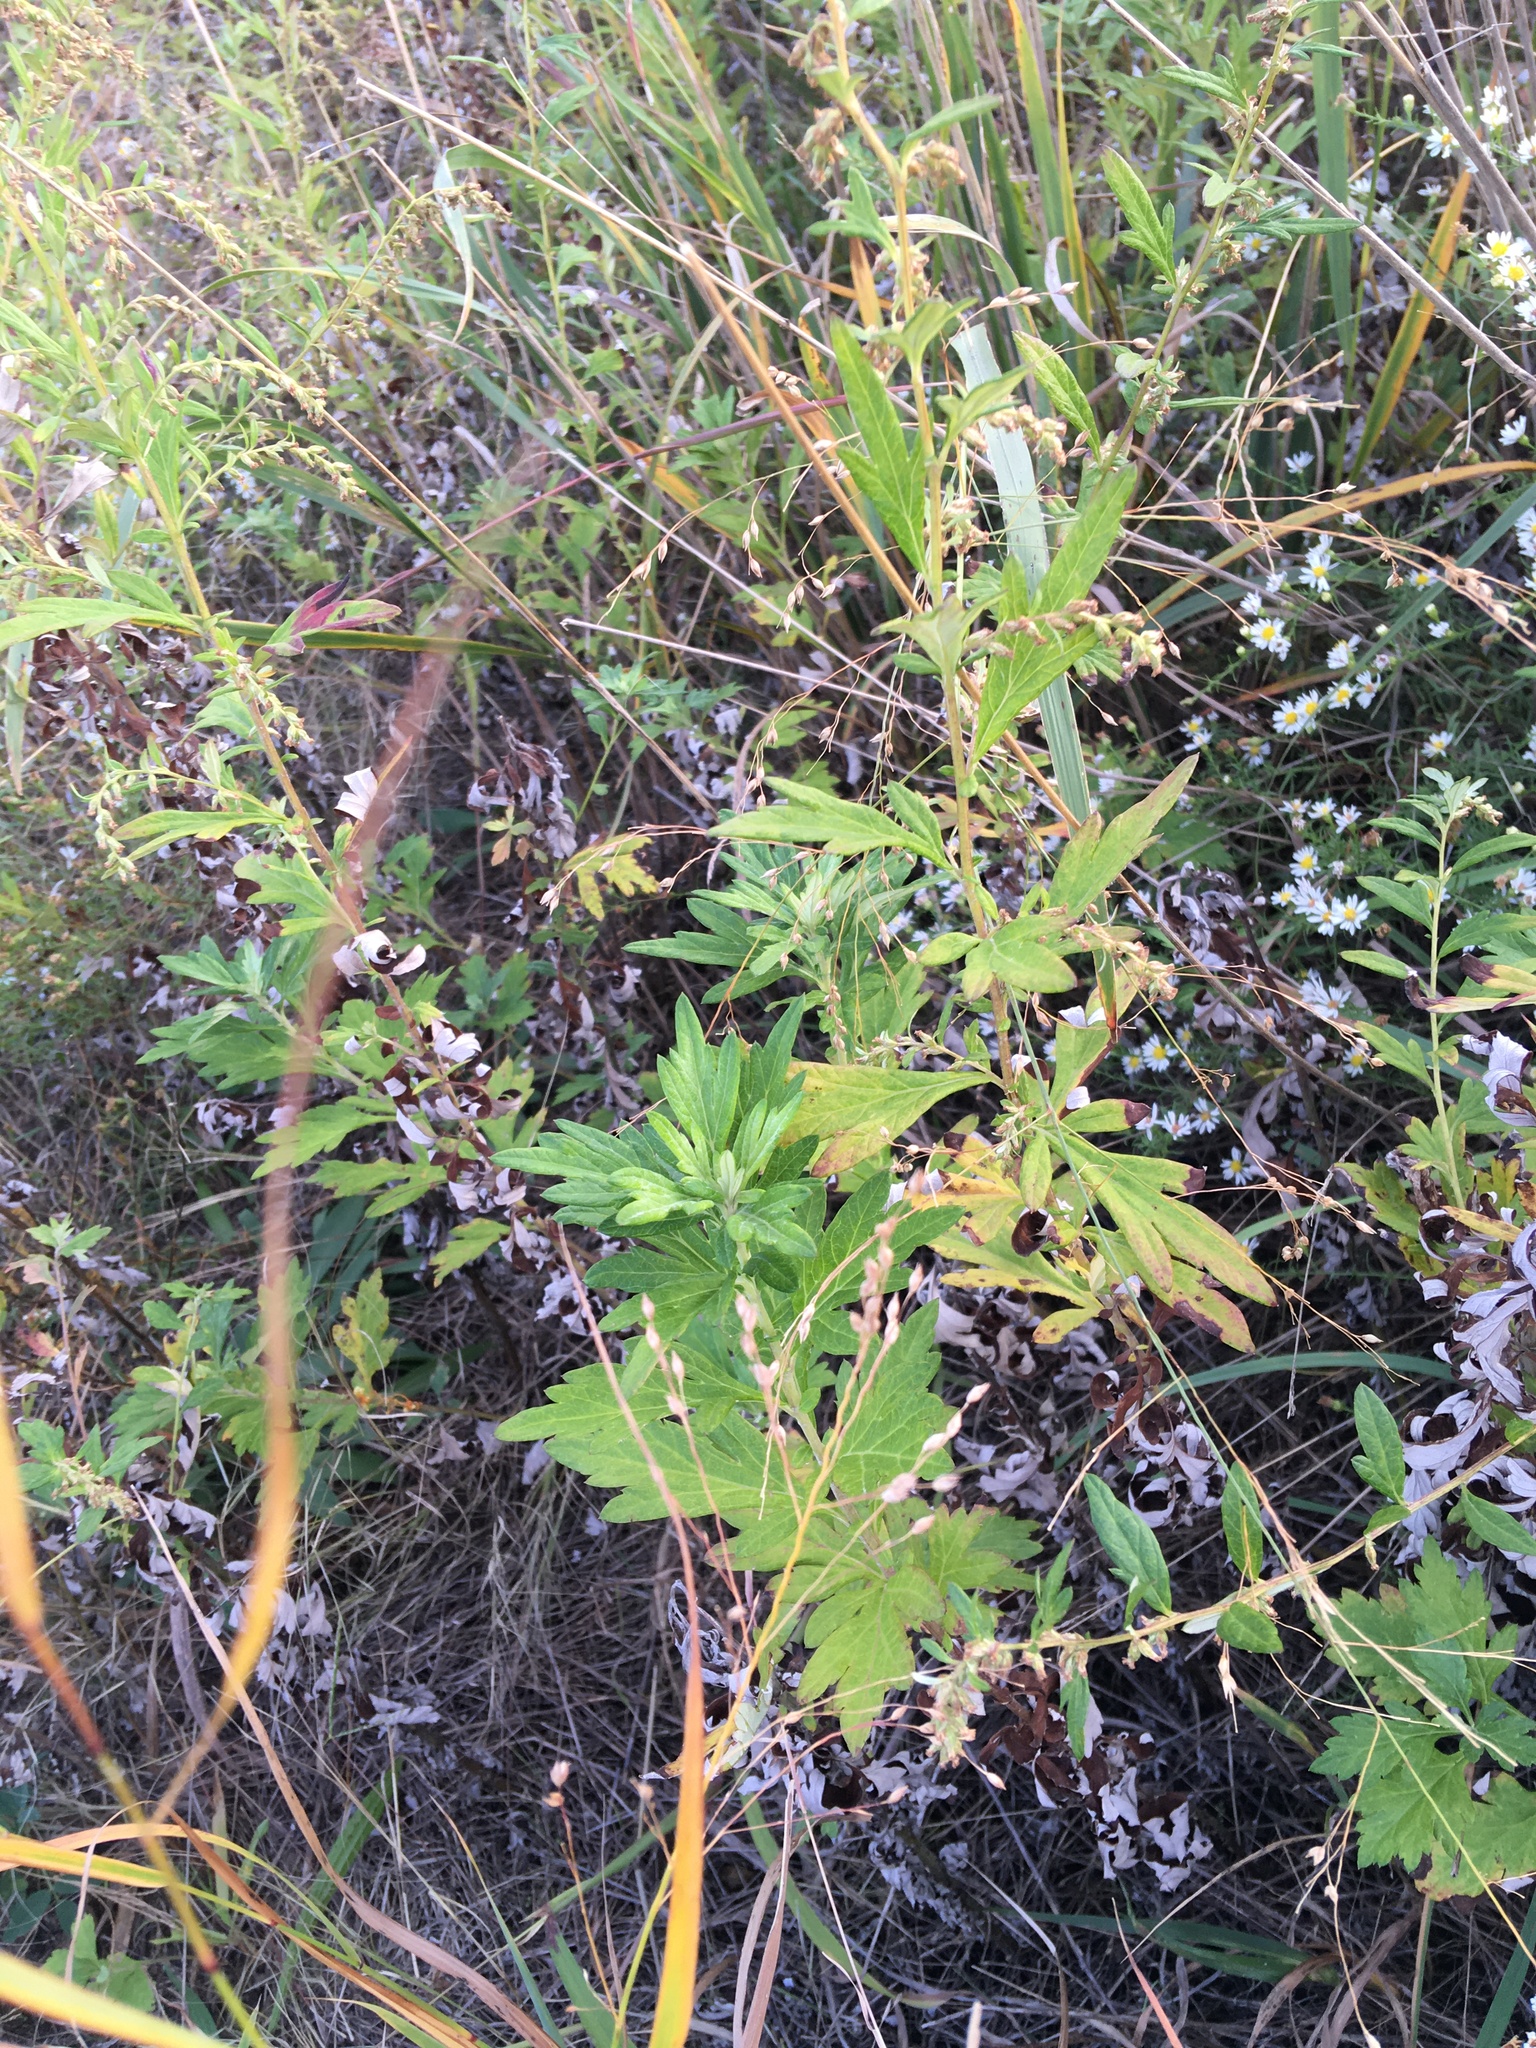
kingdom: Plantae
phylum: Tracheophyta
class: Magnoliopsida
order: Asterales
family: Asteraceae
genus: Artemisia
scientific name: Artemisia vulgaris
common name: Mugwort
